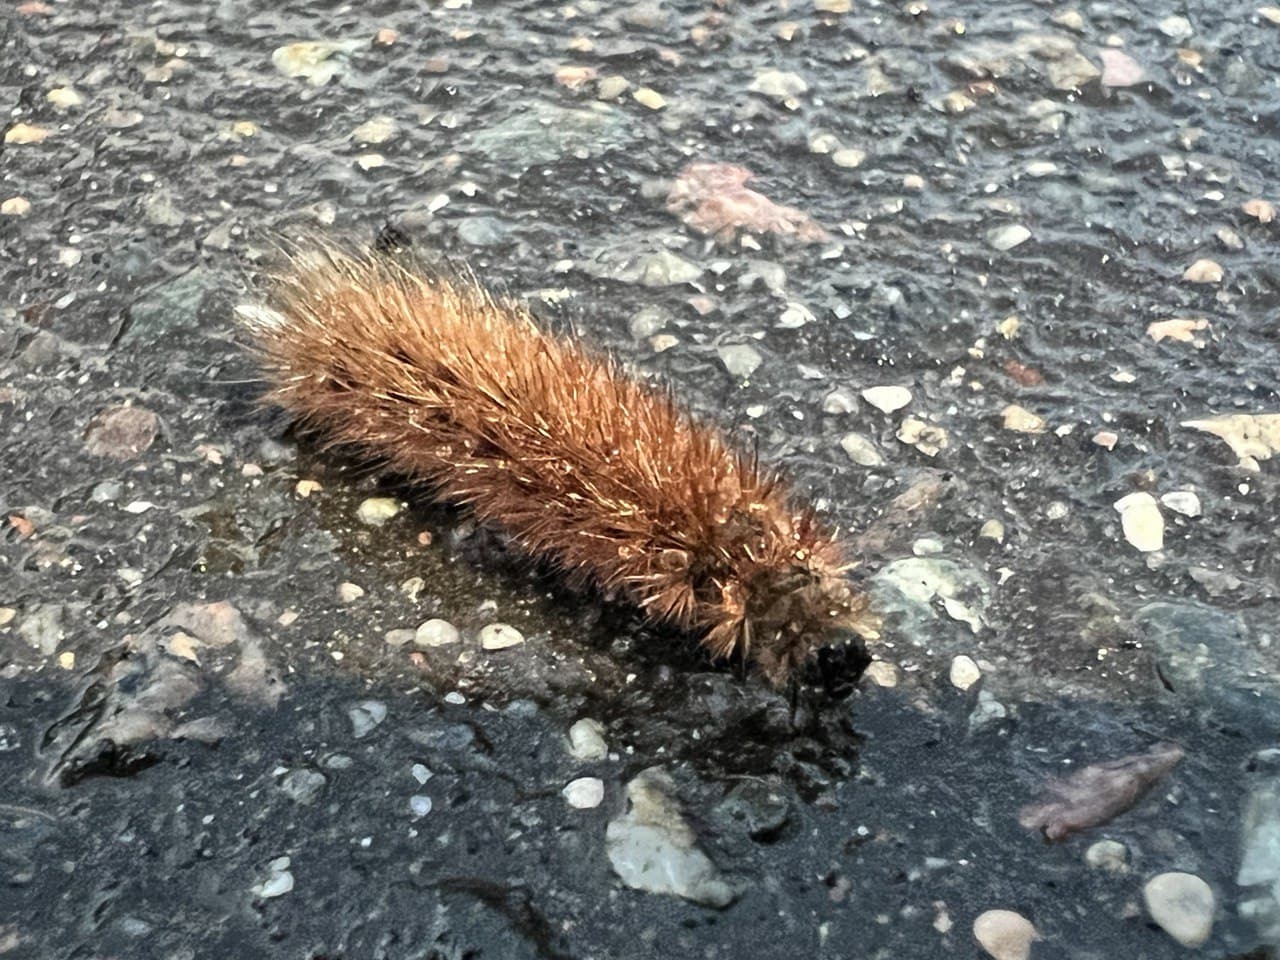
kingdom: Animalia
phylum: Arthropoda
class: Insecta
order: Lepidoptera
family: Erebidae
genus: Phragmatobia
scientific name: Phragmatobia fuliginosa
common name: Ruby tiger
